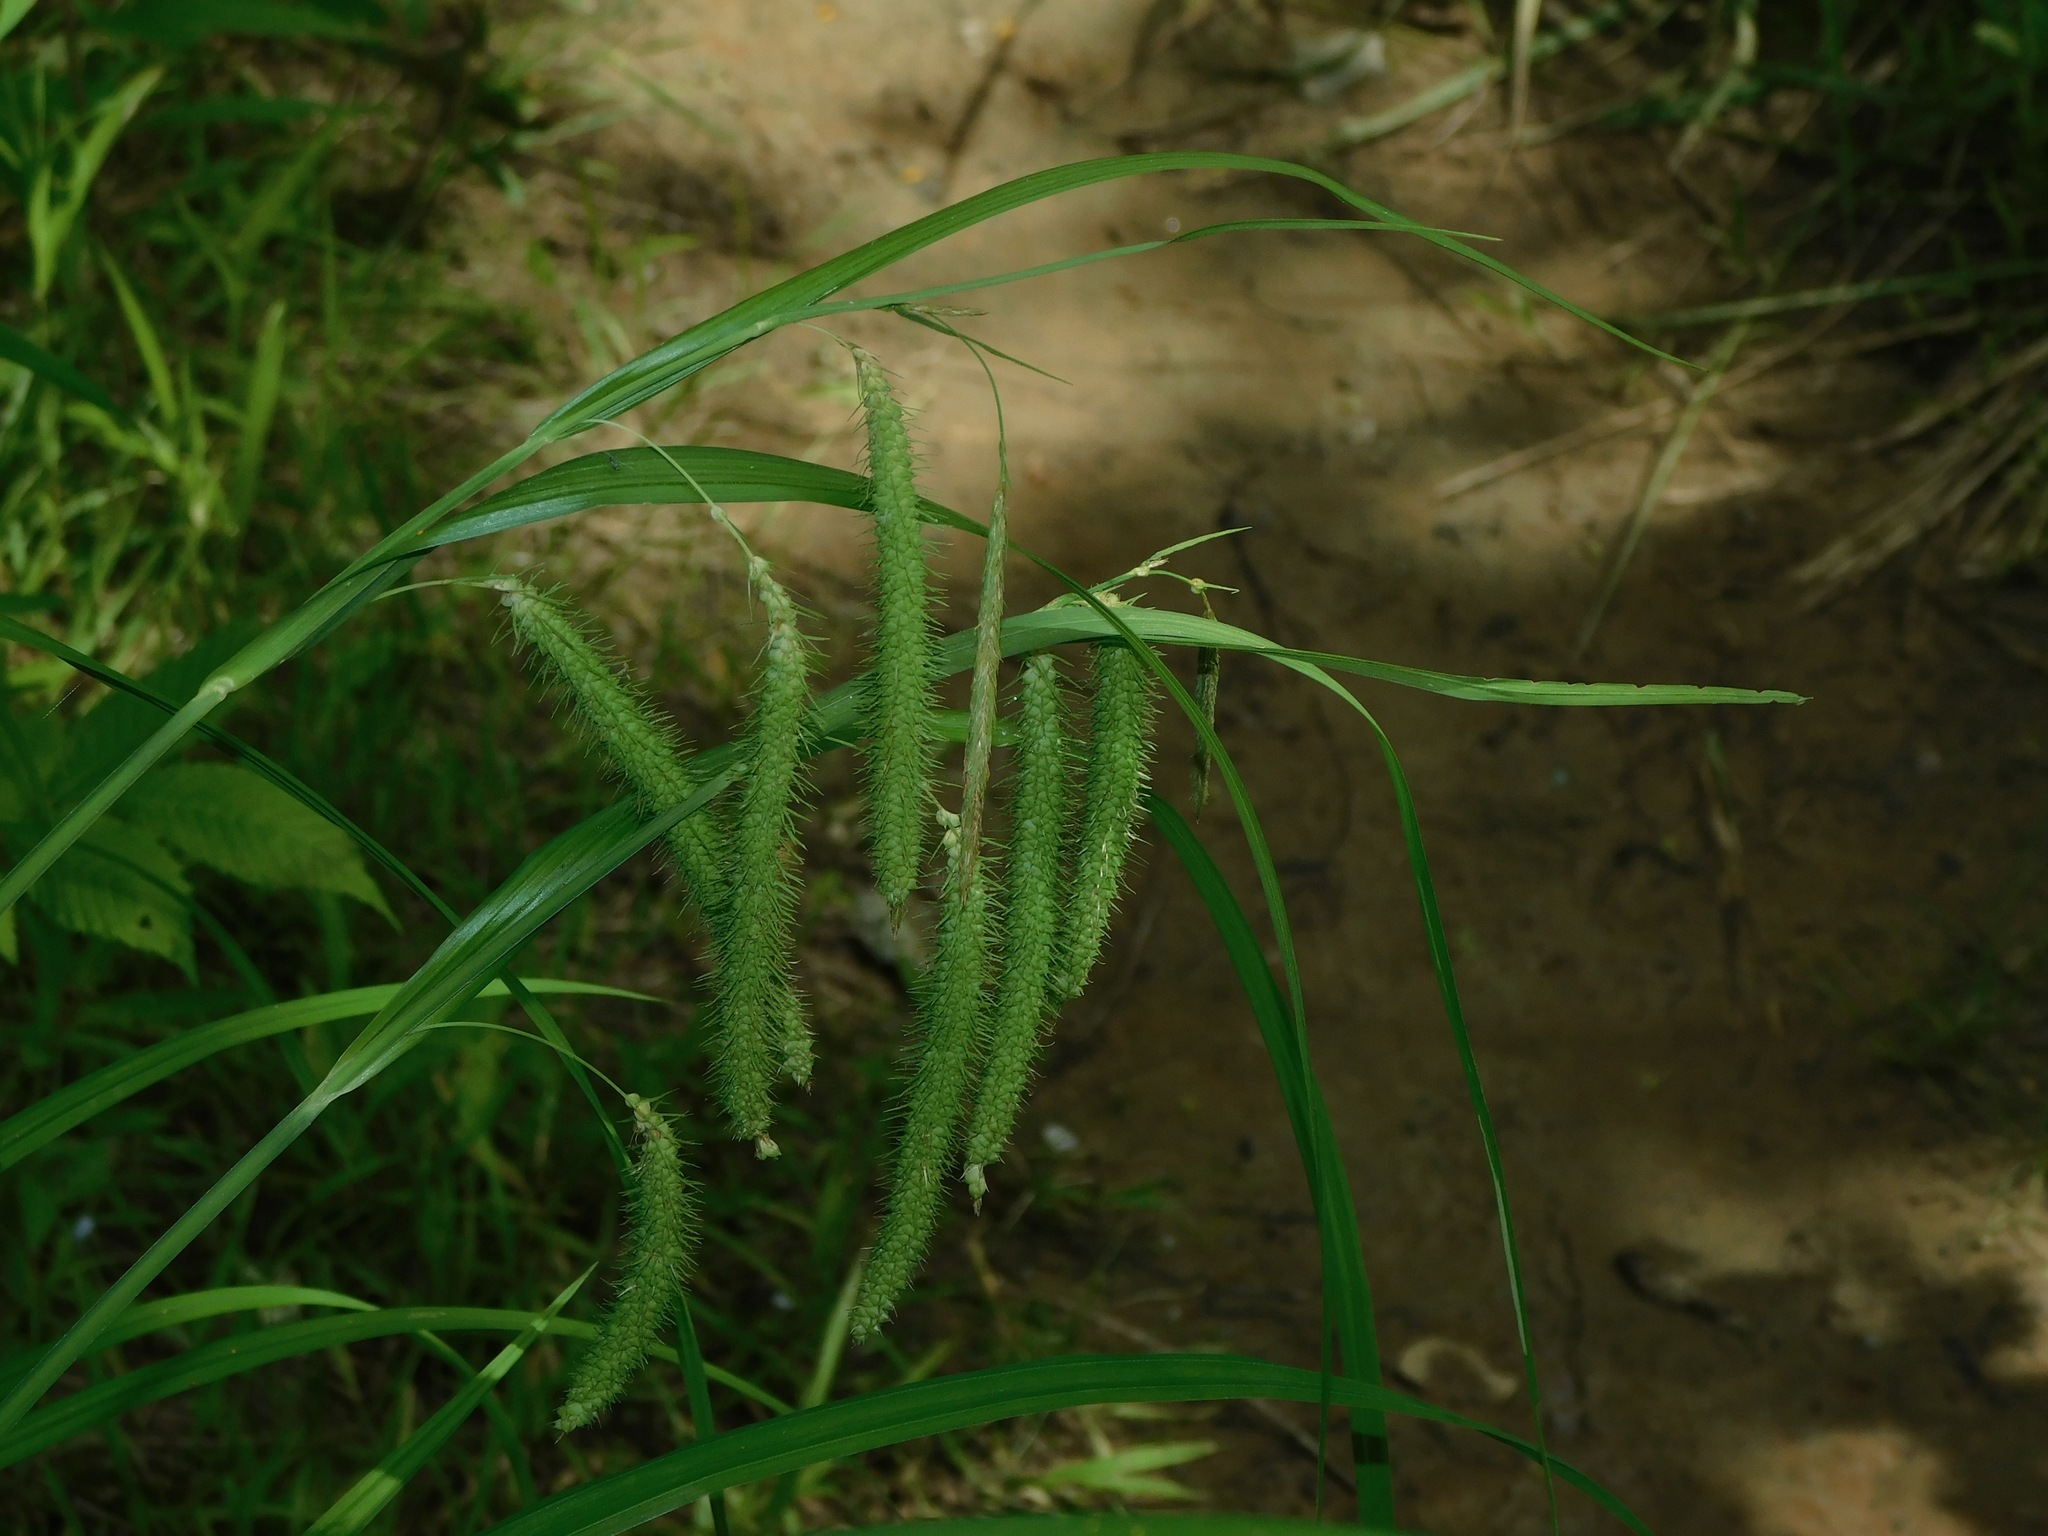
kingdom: Plantae
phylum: Tracheophyta
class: Liliopsida
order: Poales
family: Cyperaceae
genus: Carex
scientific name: Carex crinita
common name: Fringed sedge
